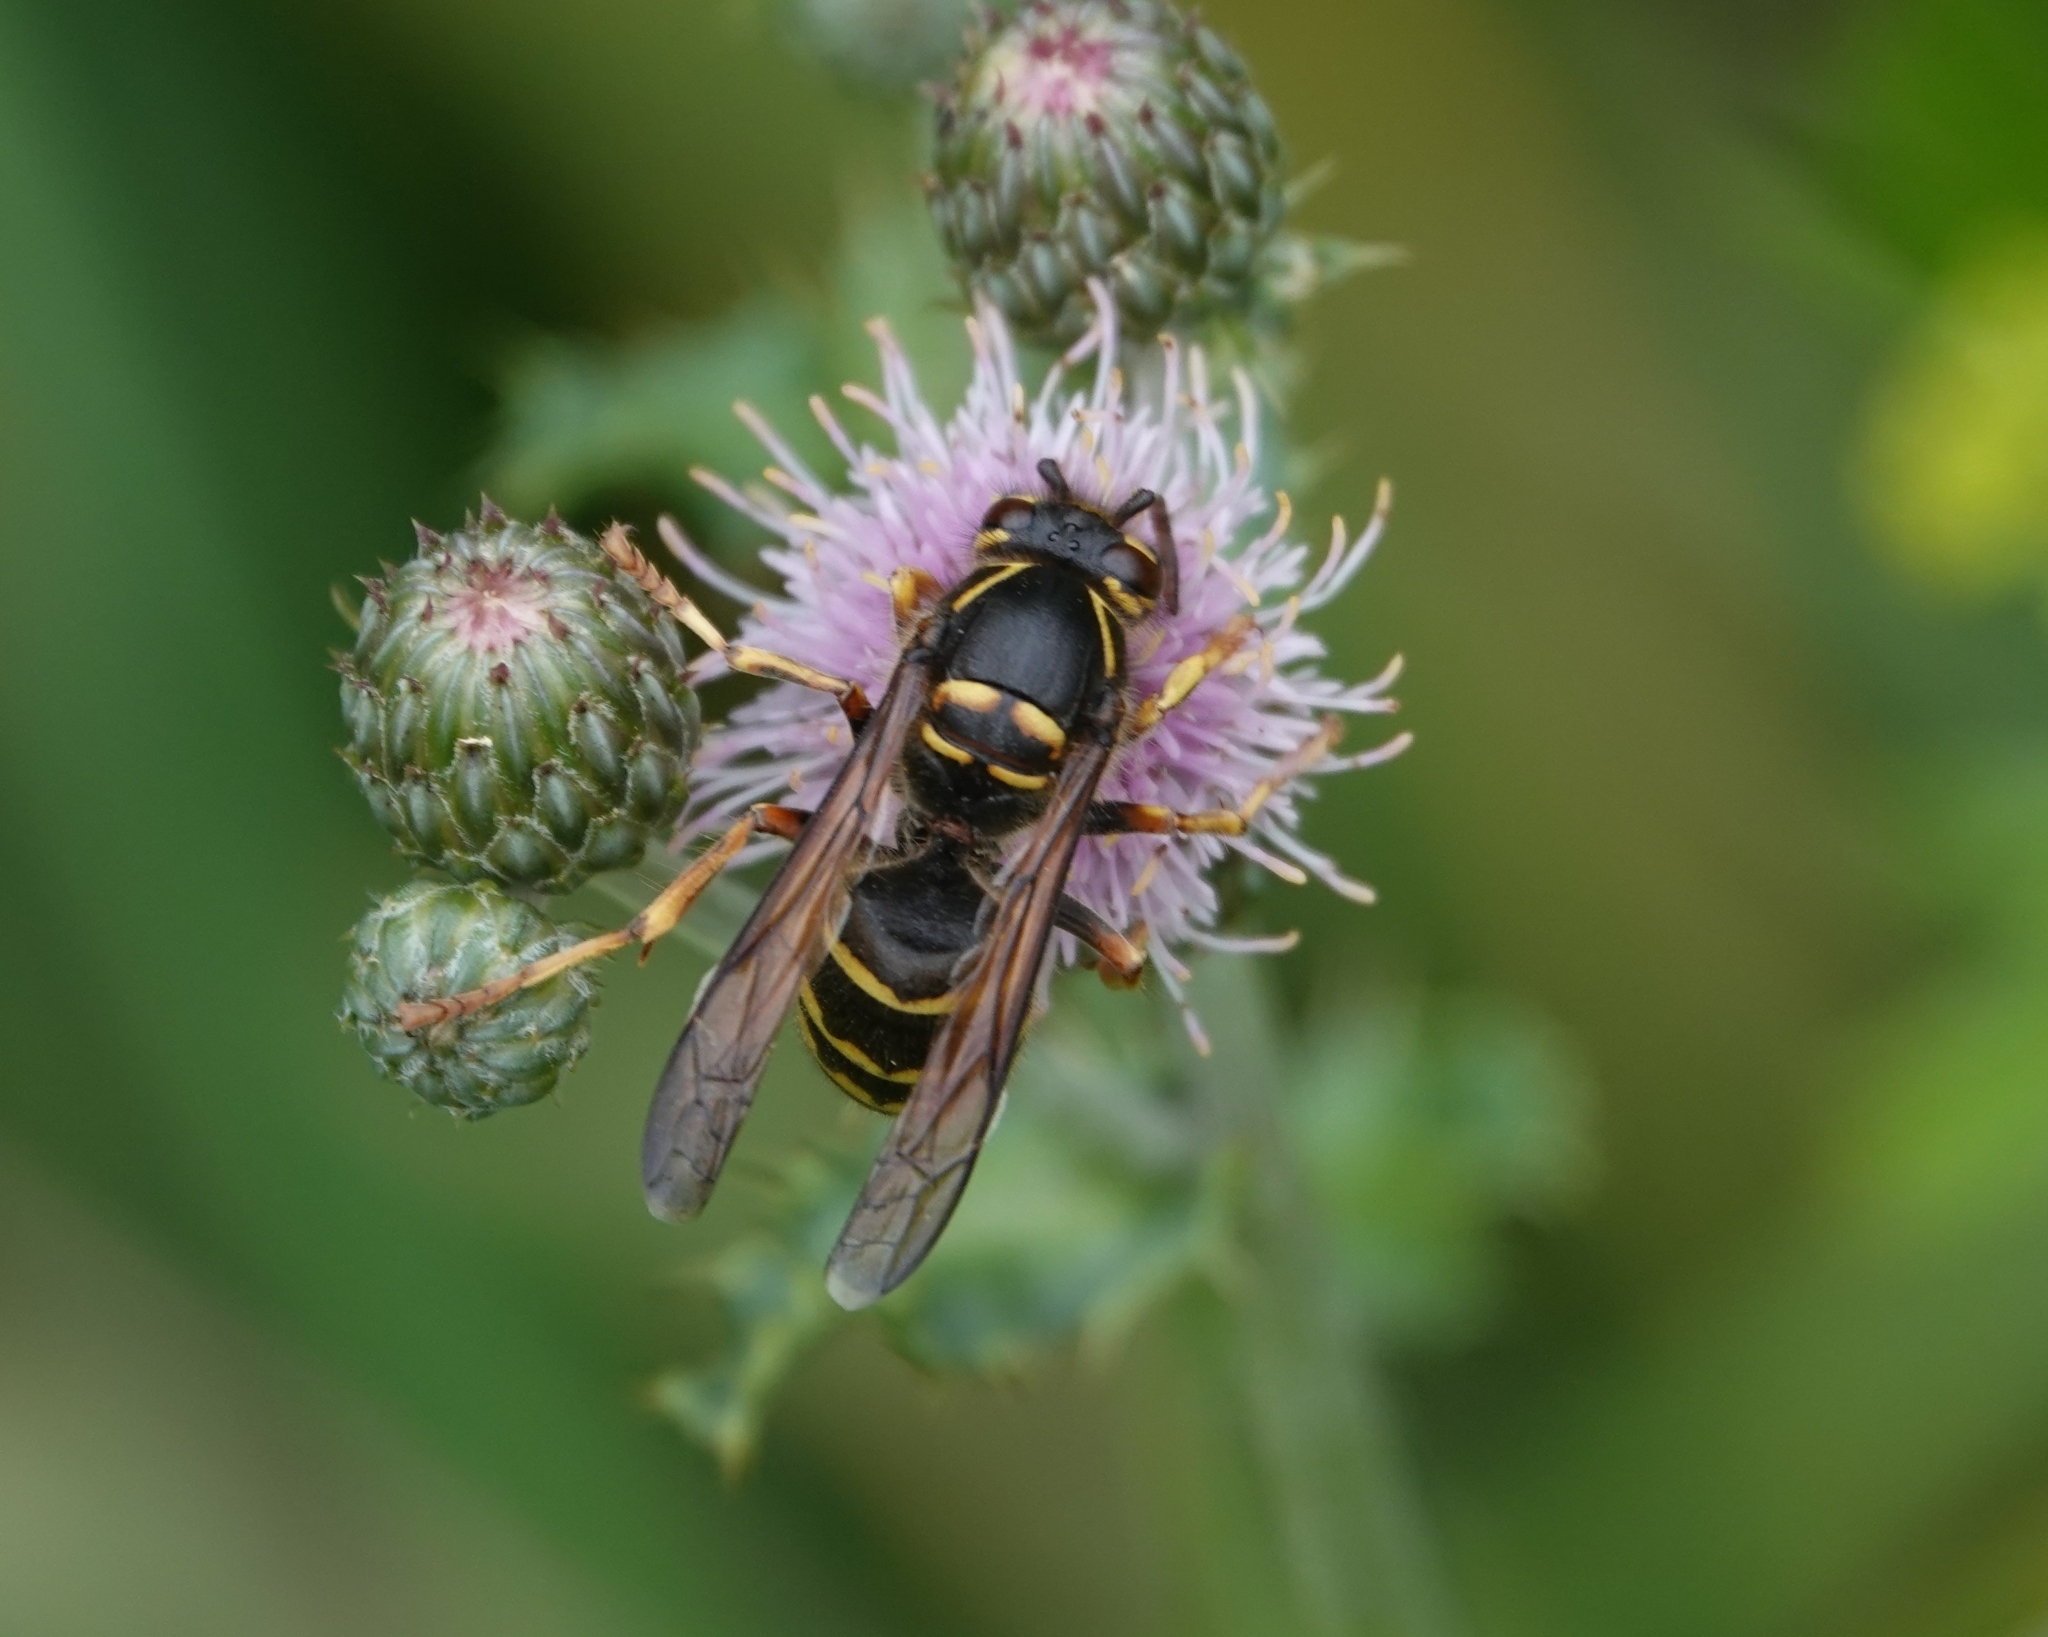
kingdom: Animalia
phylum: Arthropoda
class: Insecta
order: Hymenoptera
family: Vespidae
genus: Dolichovespula
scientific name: Dolichovespula media
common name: Median wasp
